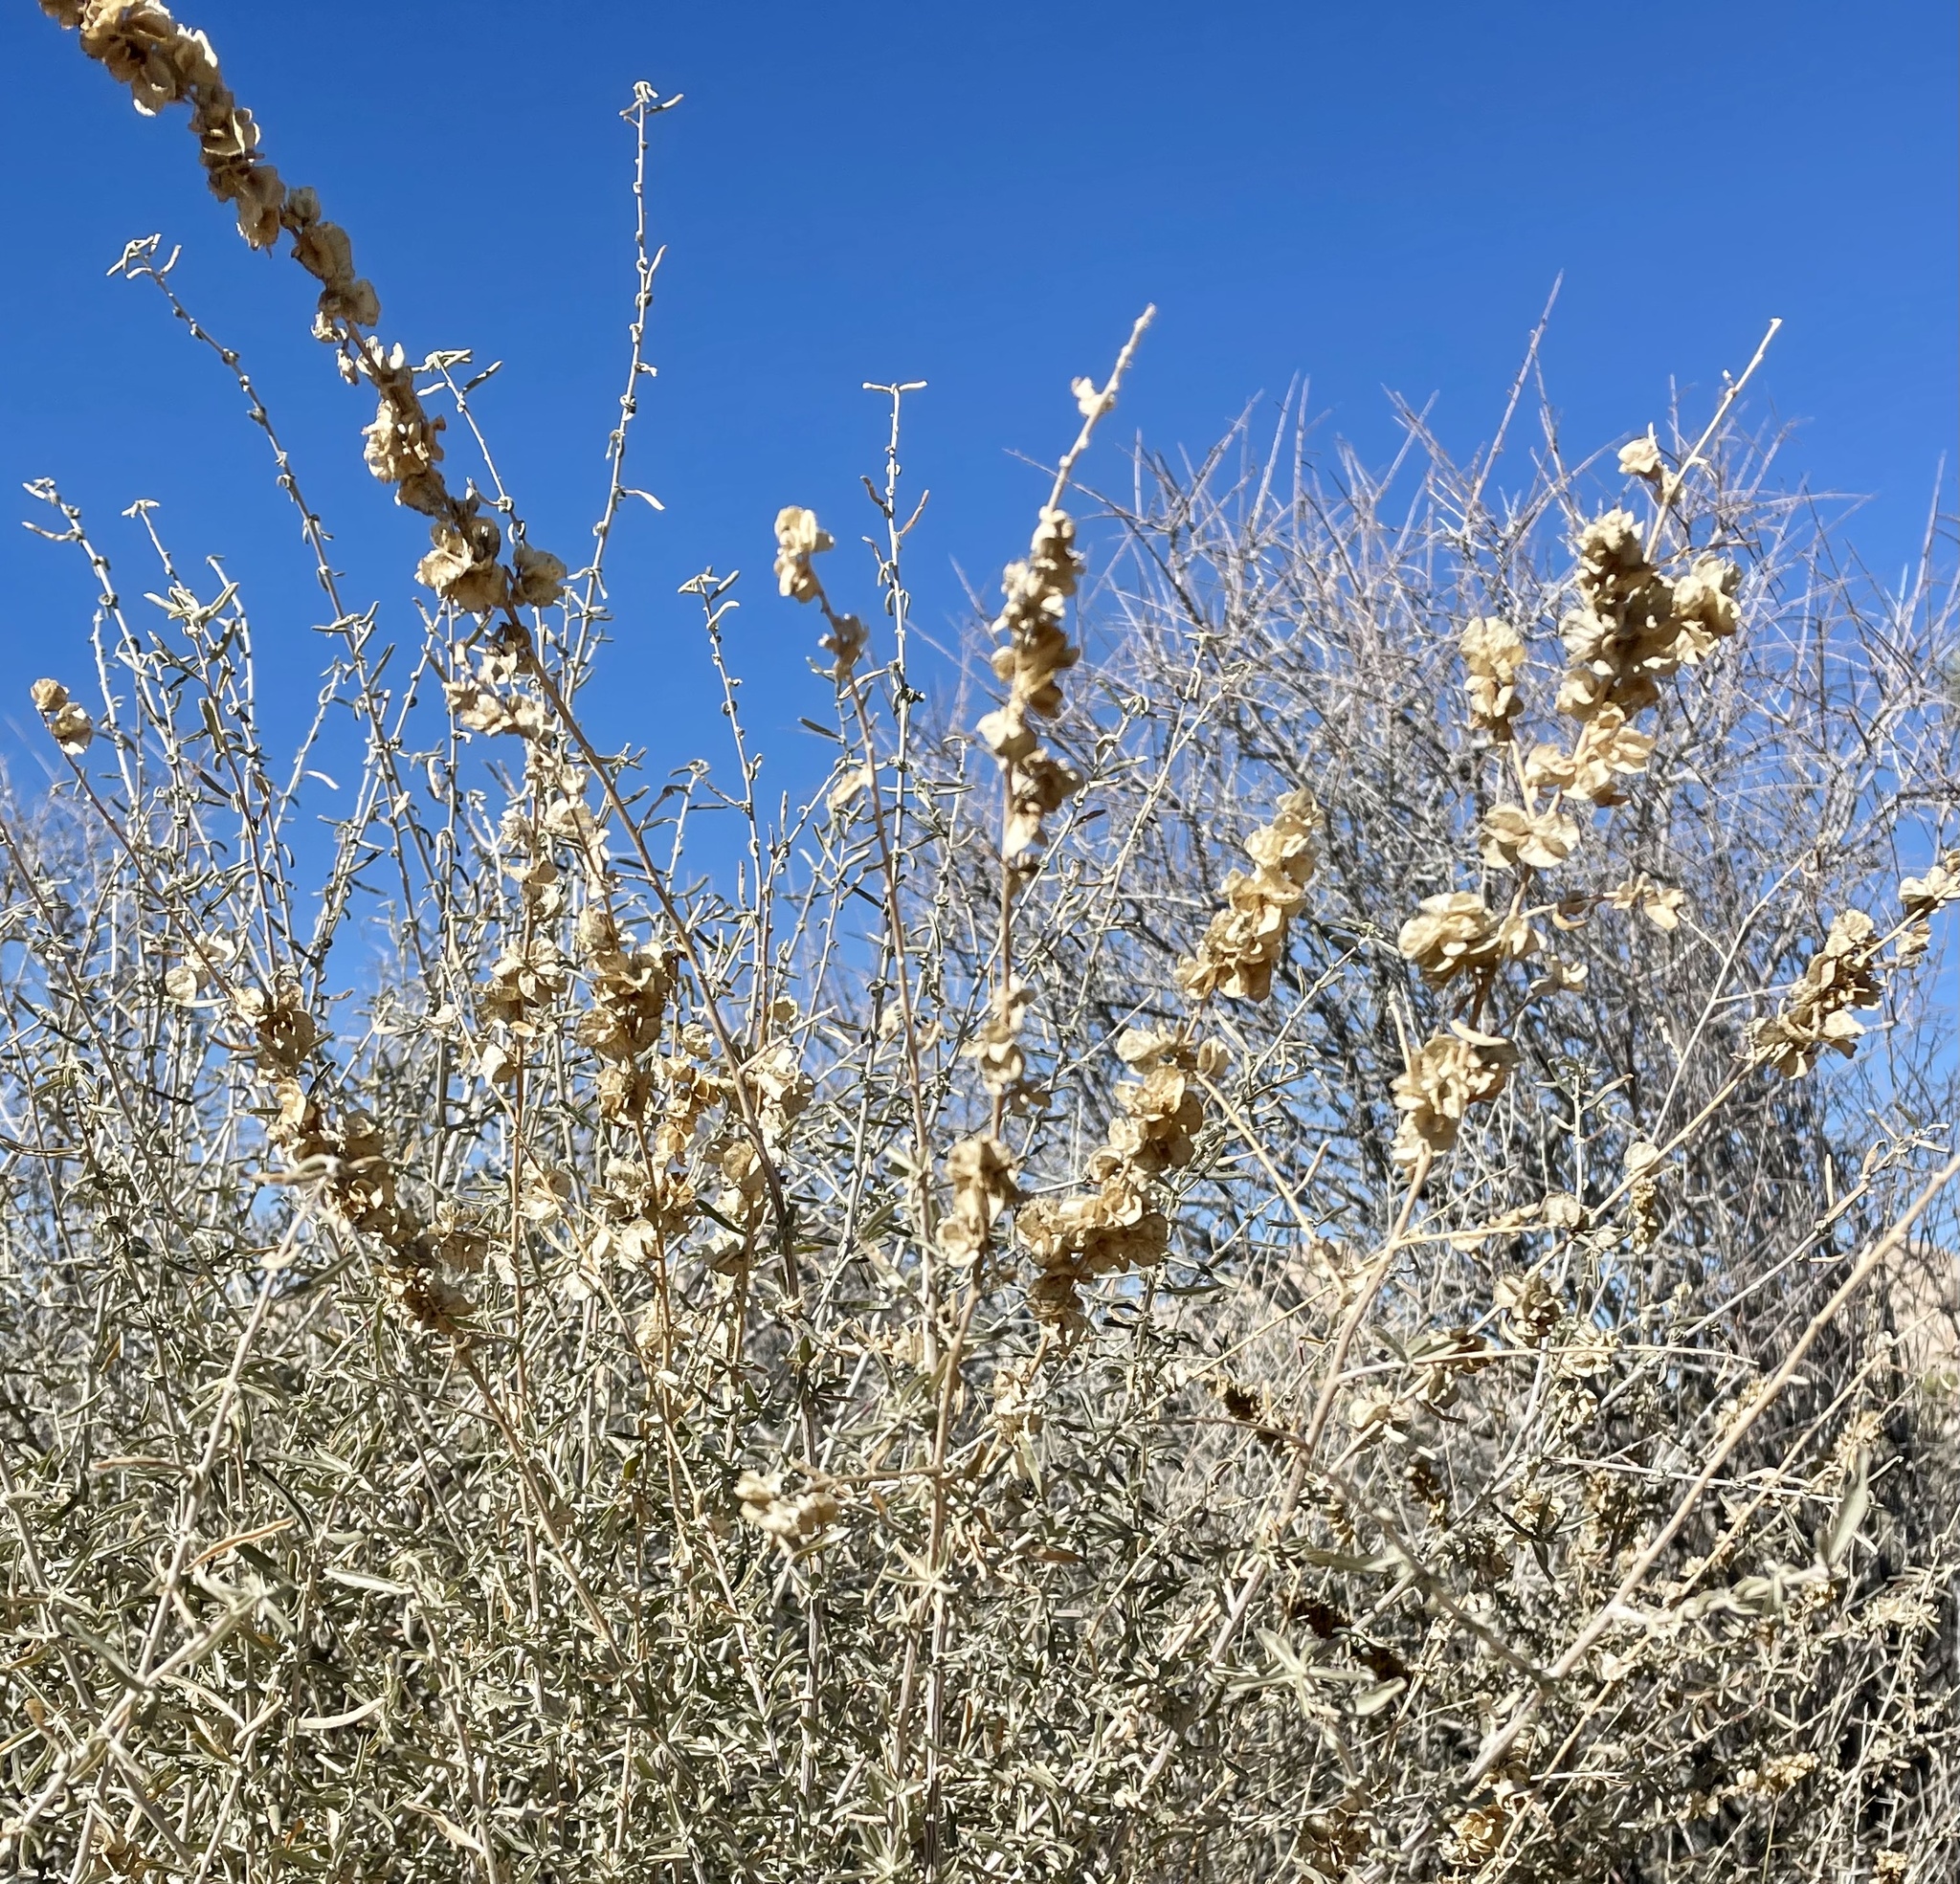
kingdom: Plantae
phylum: Tracheophyta
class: Magnoliopsida
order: Caryophyllales
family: Amaranthaceae
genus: Atriplex
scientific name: Atriplex canescens
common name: Four-wing saltbush
